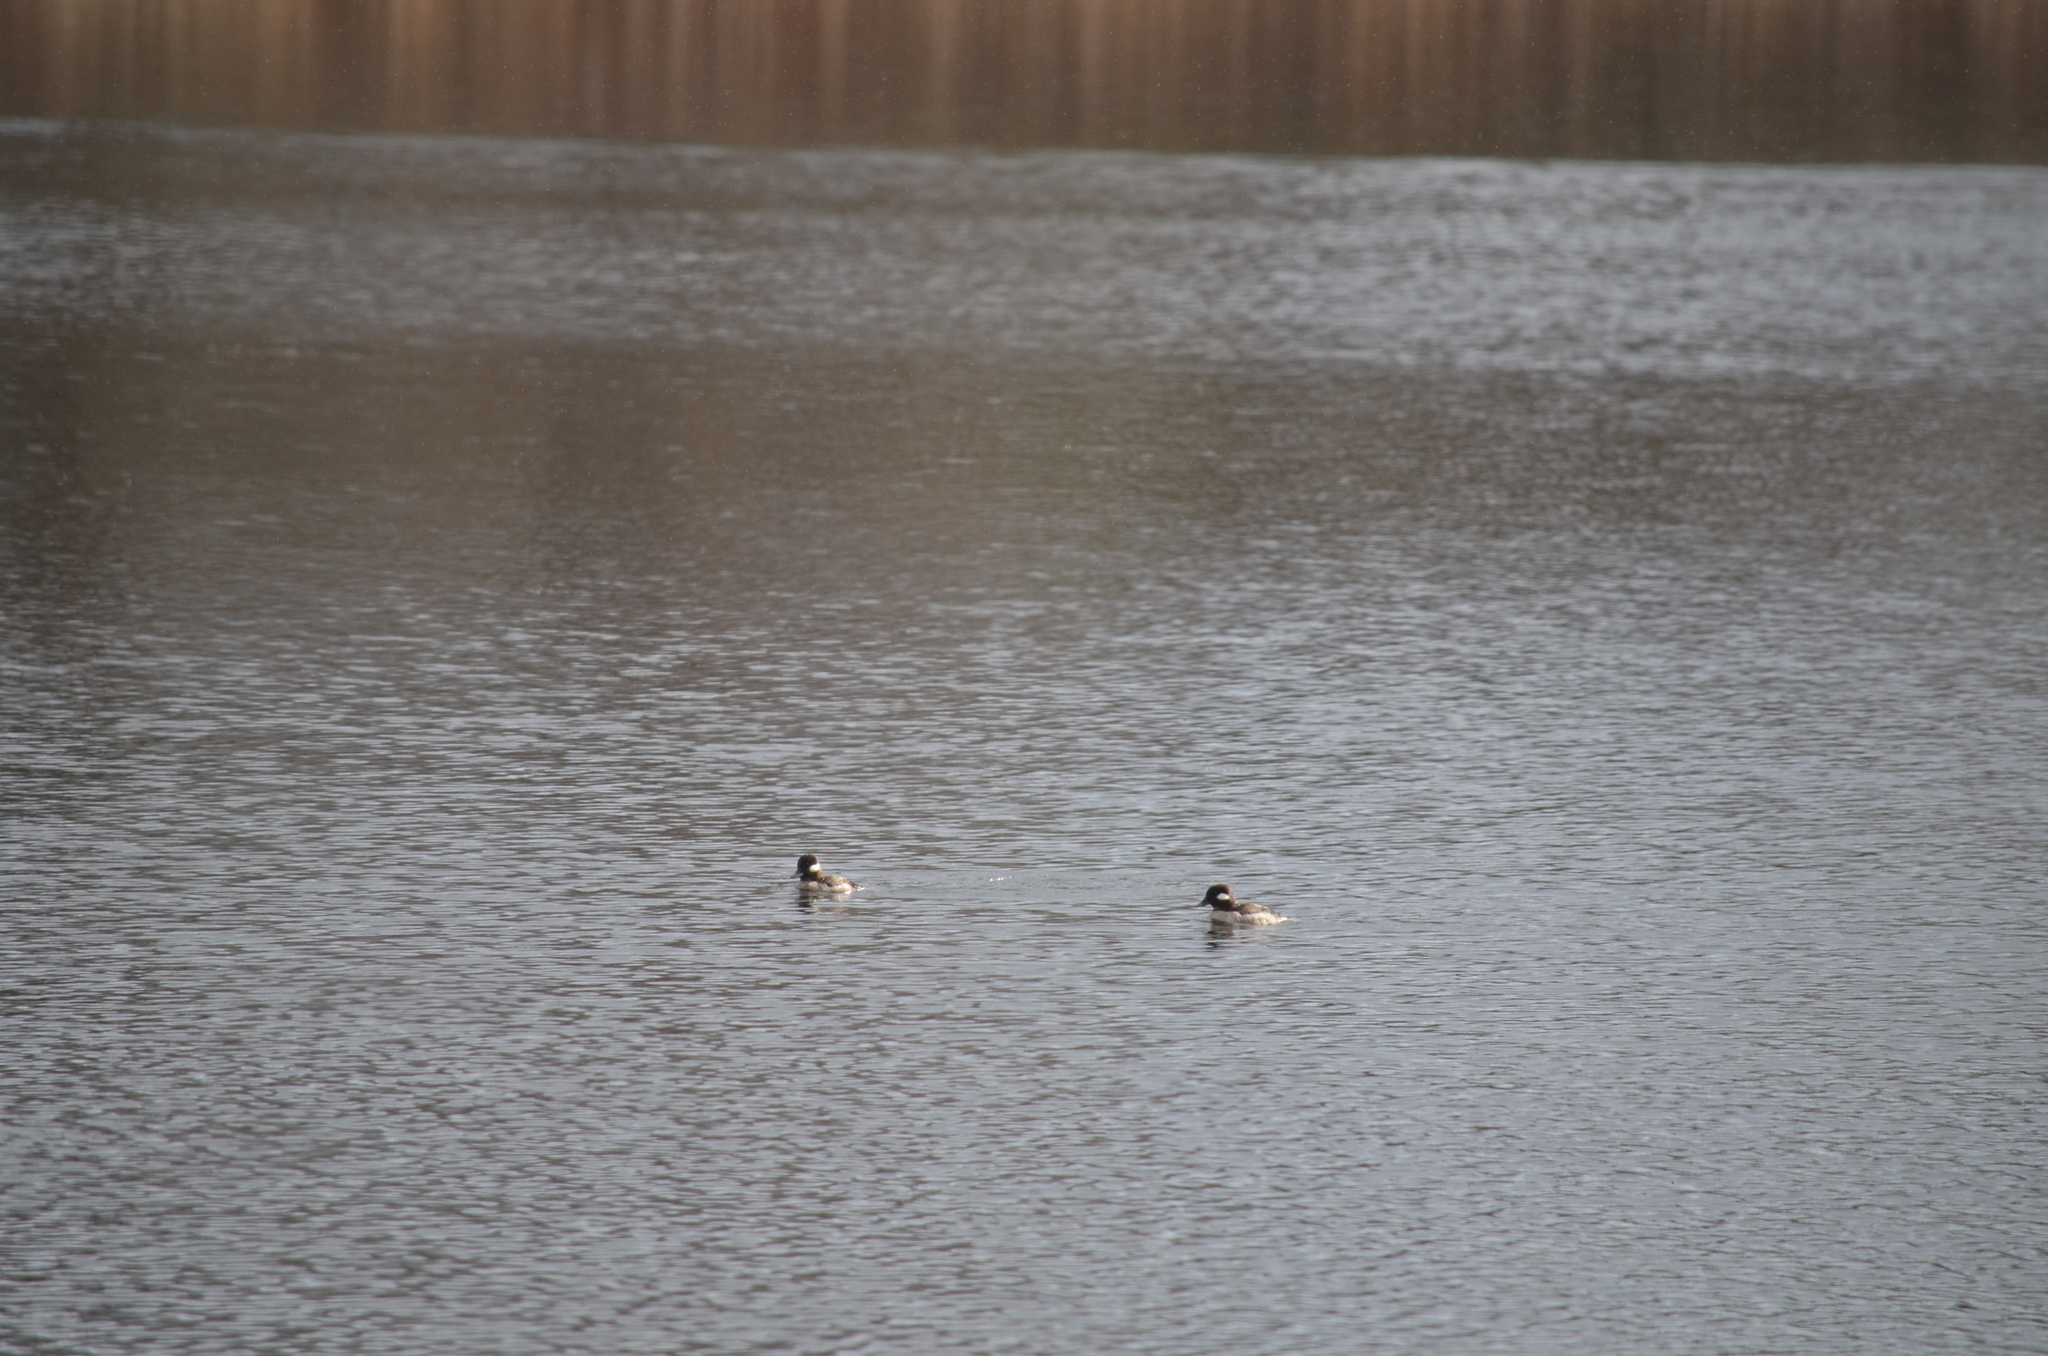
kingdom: Animalia
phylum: Chordata
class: Aves
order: Anseriformes
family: Anatidae
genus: Bucephala
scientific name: Bucephala albeola
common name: Bufflehead
